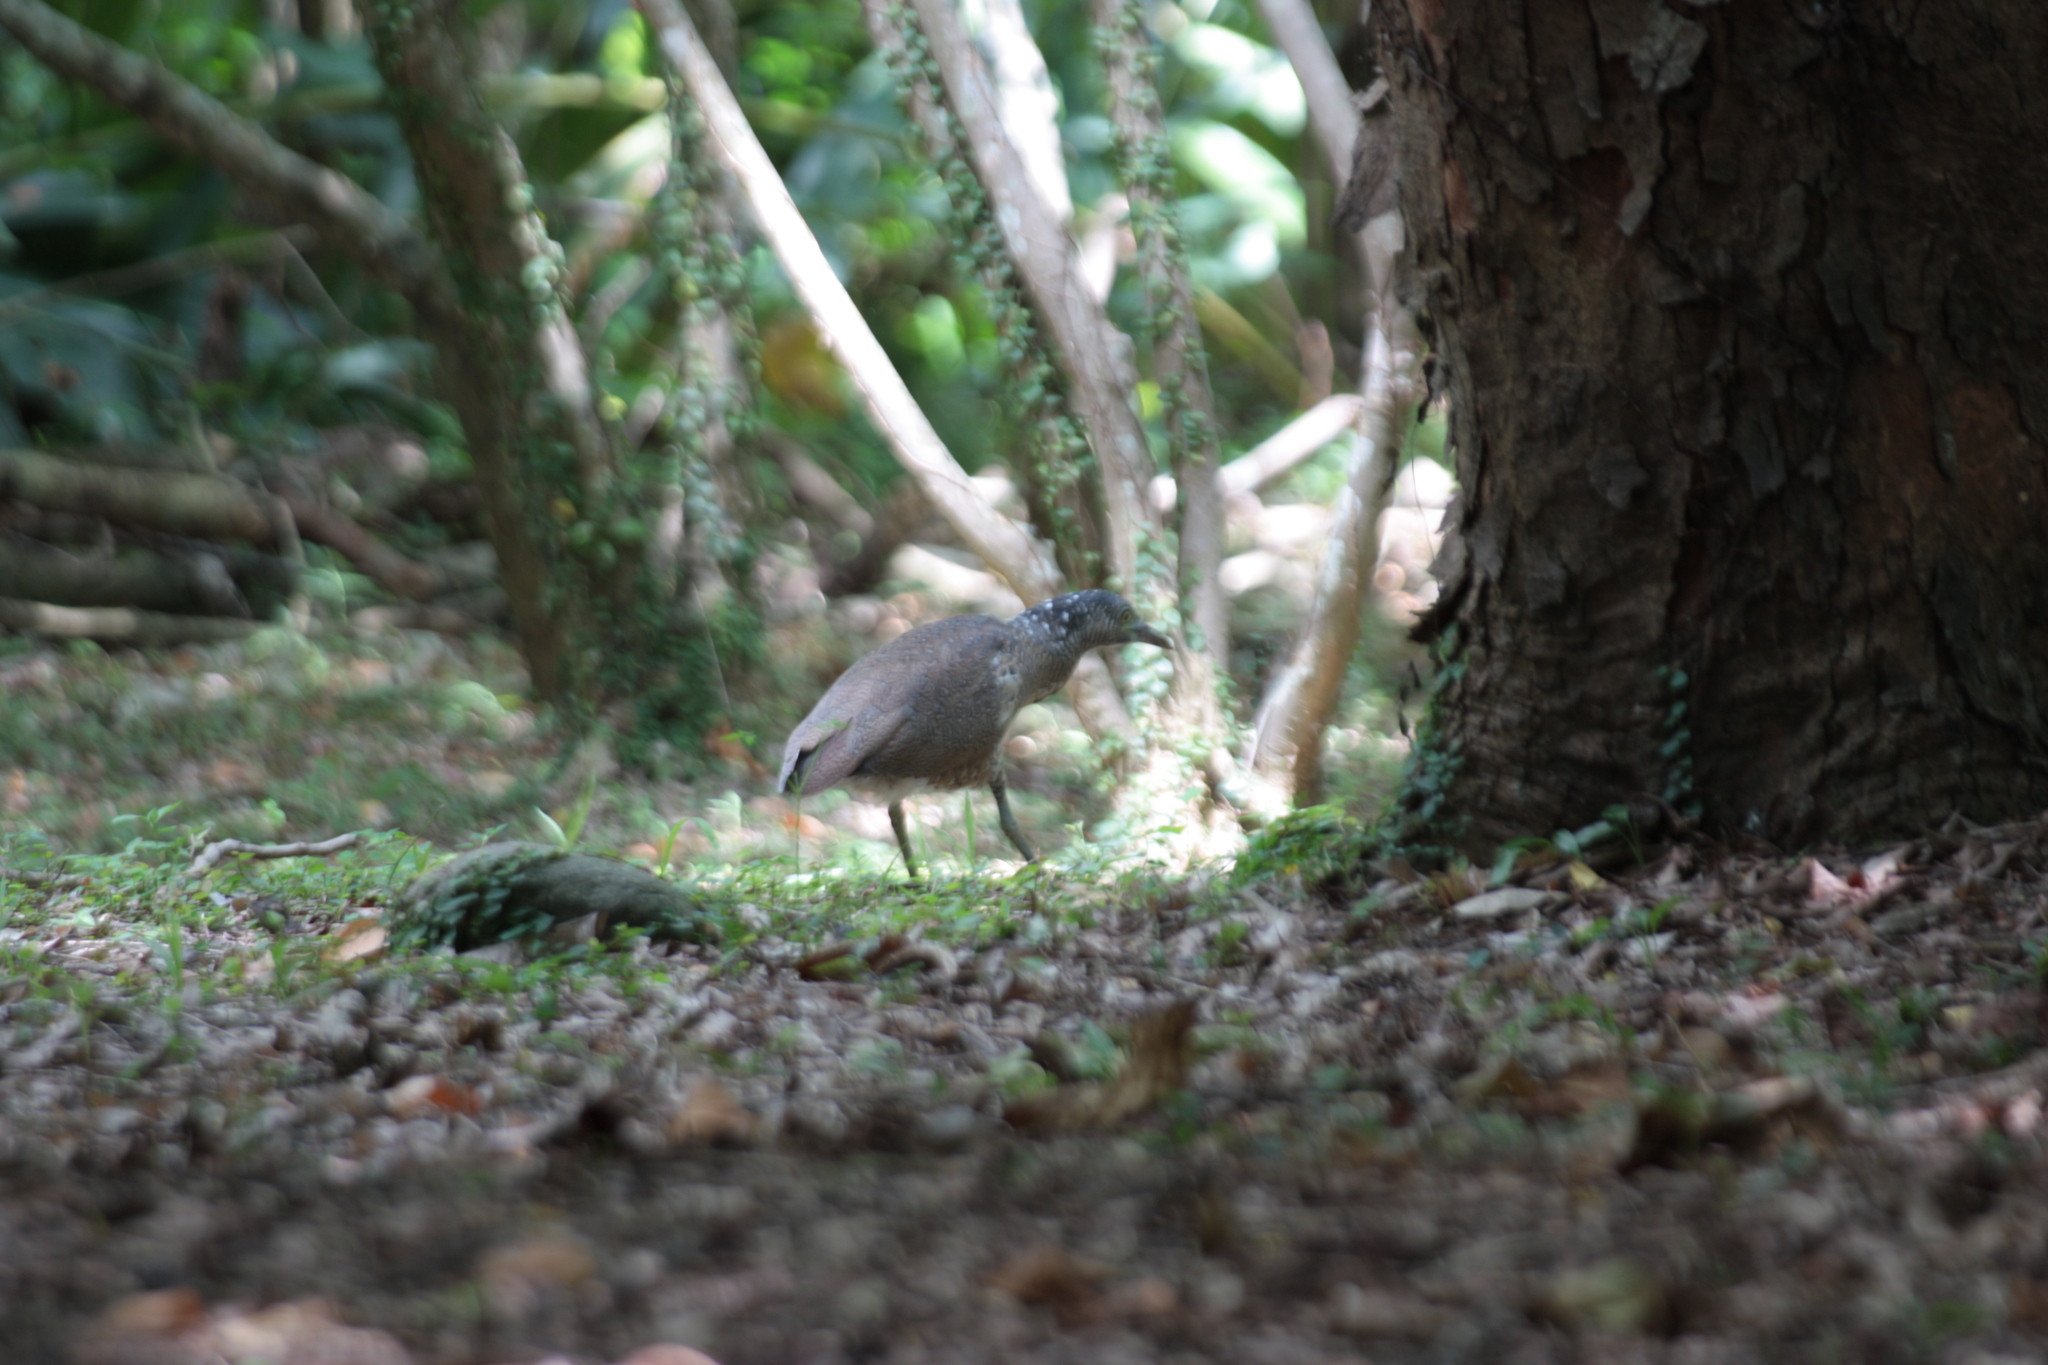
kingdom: Animalia
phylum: Chordata
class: Aves
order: Pelecaniformes
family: Ardeidae
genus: Gorsachius
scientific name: Gorsachius melanolophus
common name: Malayan night heron
